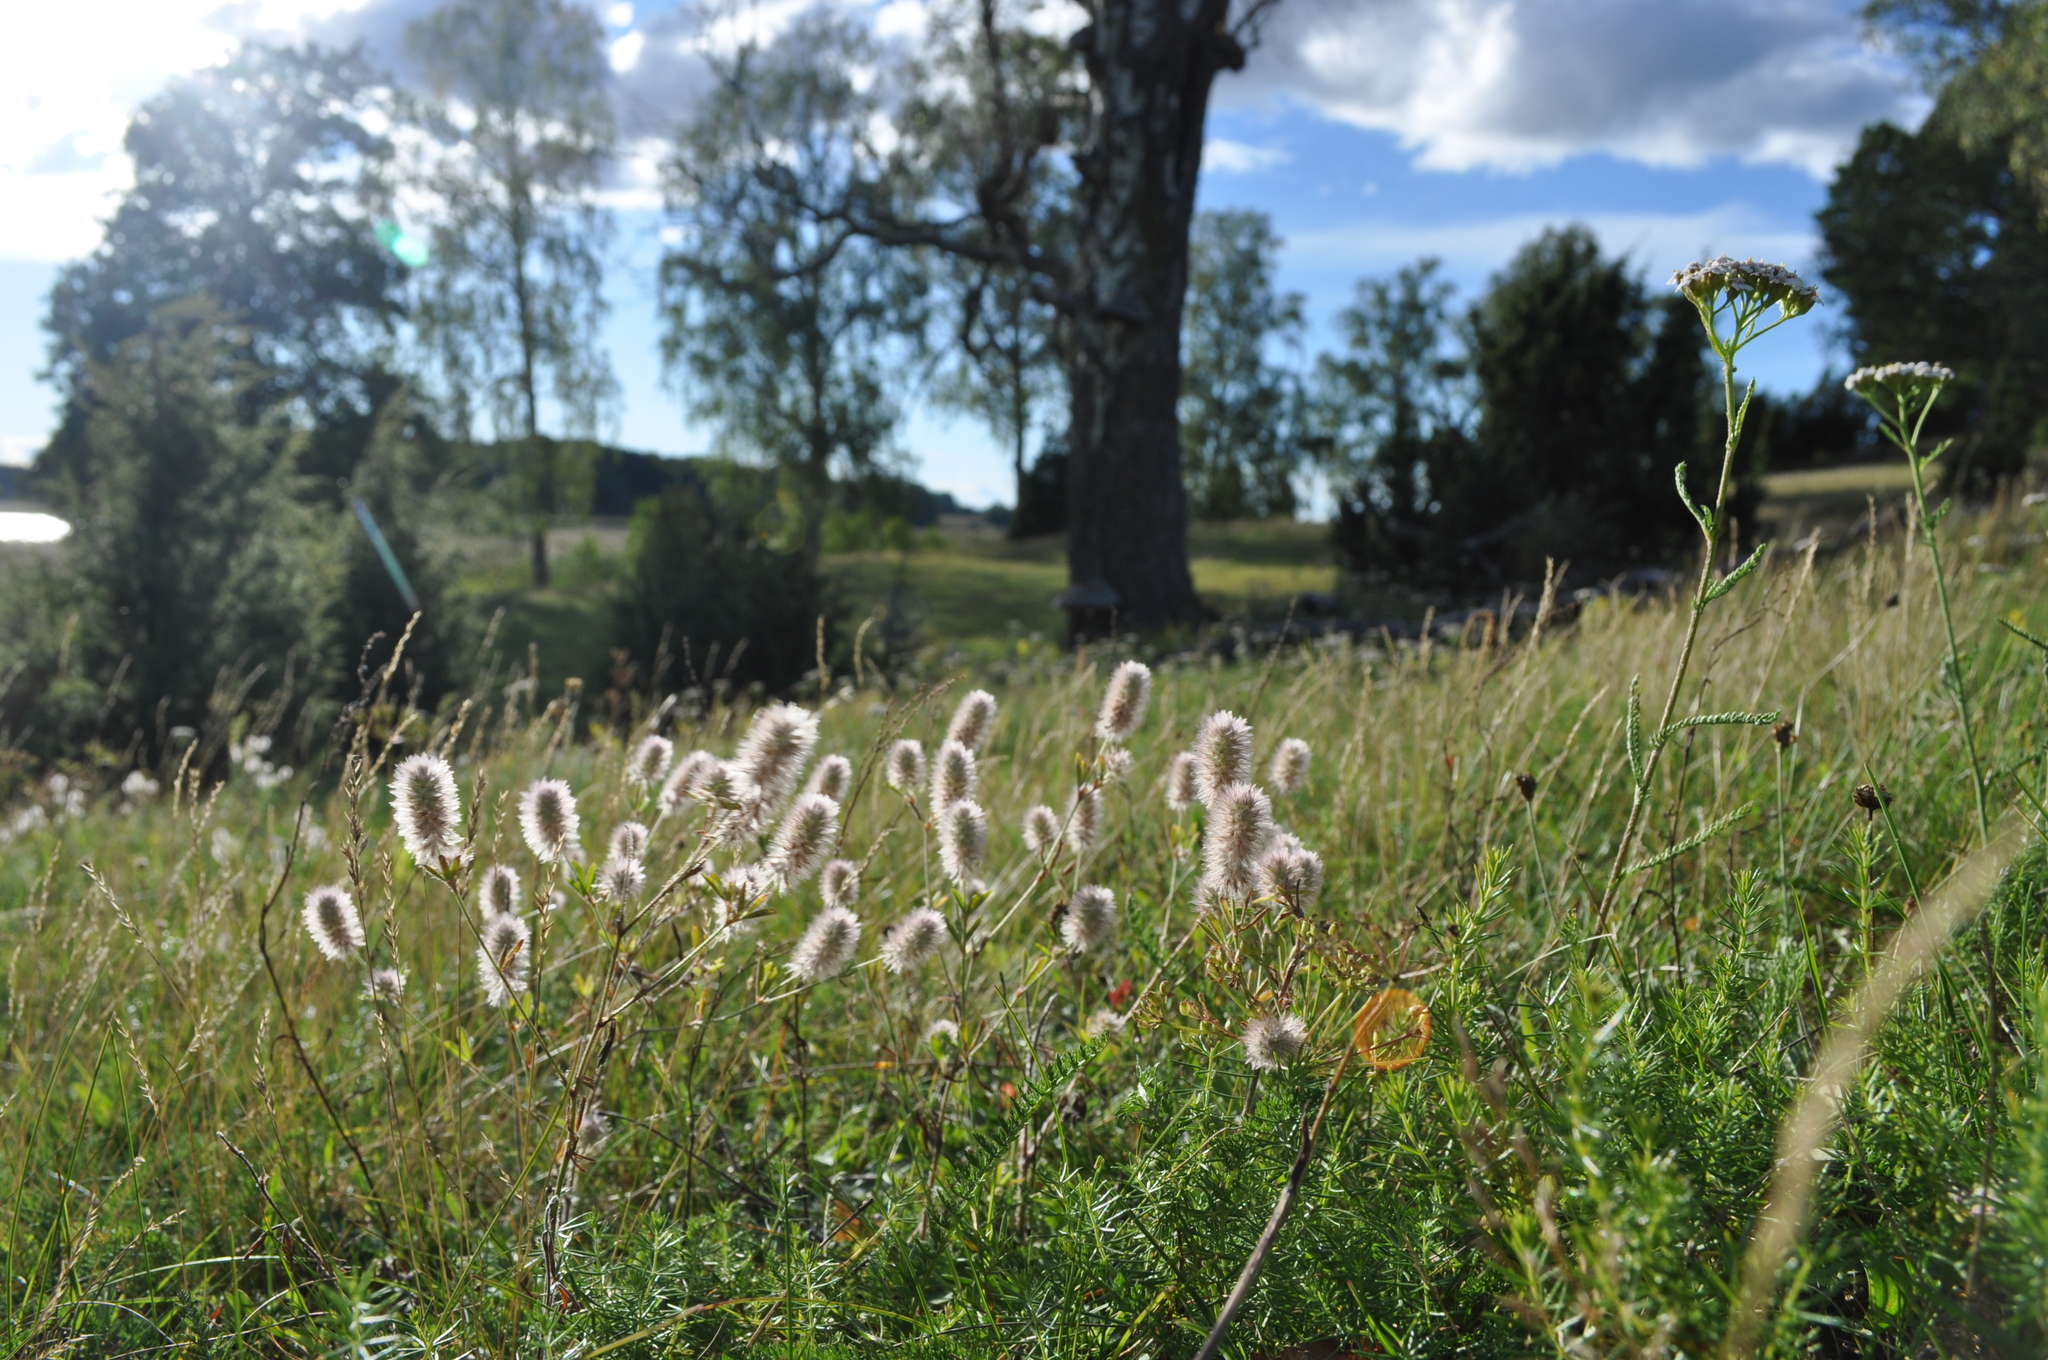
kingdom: Plantae
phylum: Tracheophyta
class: Magnoliopsida
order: Fabales
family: Fabaceae
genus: Trifolium
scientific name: Trifolium arvense
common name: Hare's-foot clover
